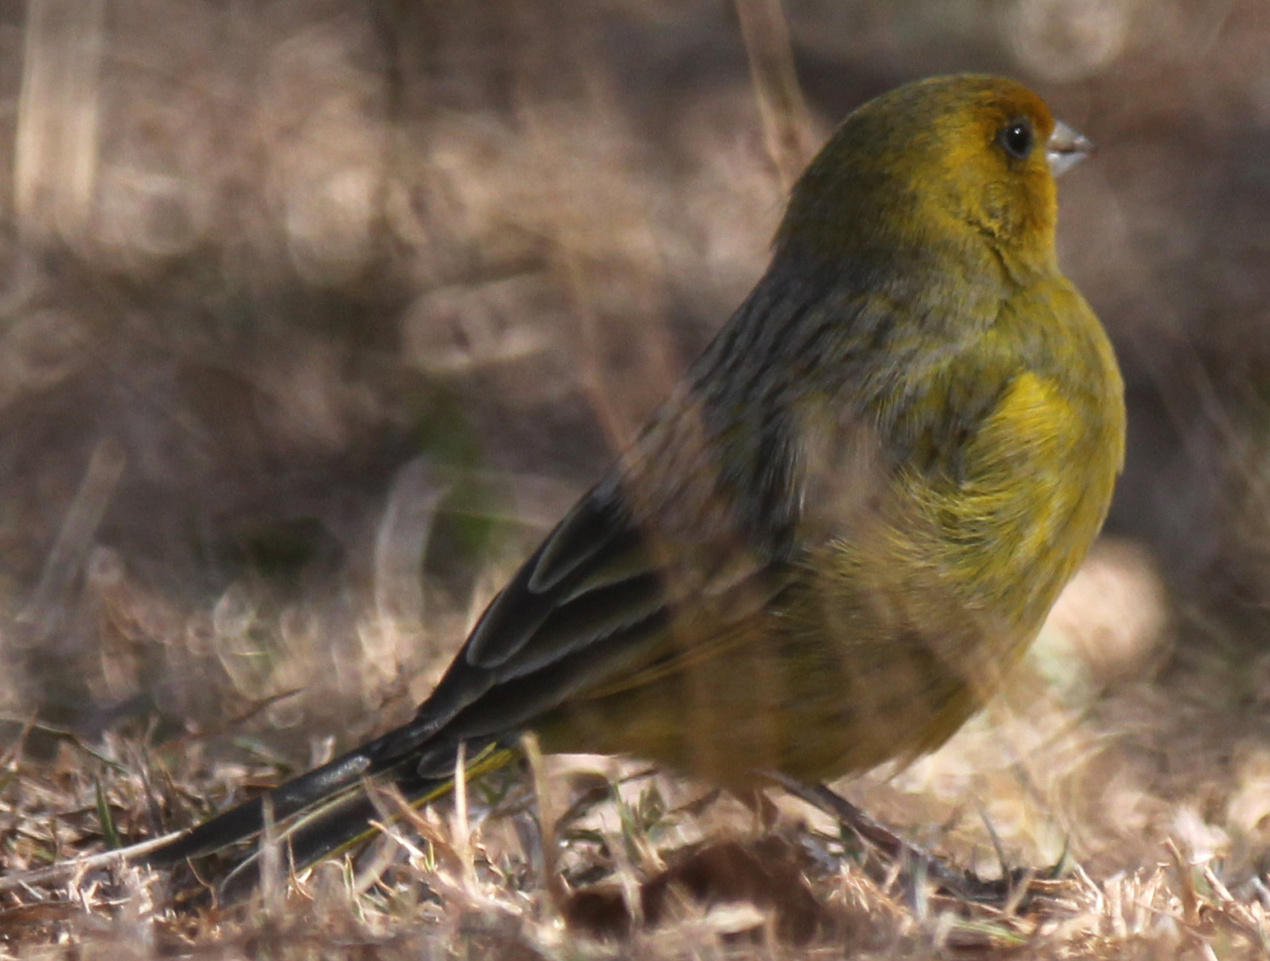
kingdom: Animalia
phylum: Chordata
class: Aves
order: Passeriformes
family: Thraupidae
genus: Sicalis
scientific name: Sicalis flaveola
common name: Saffron finch
